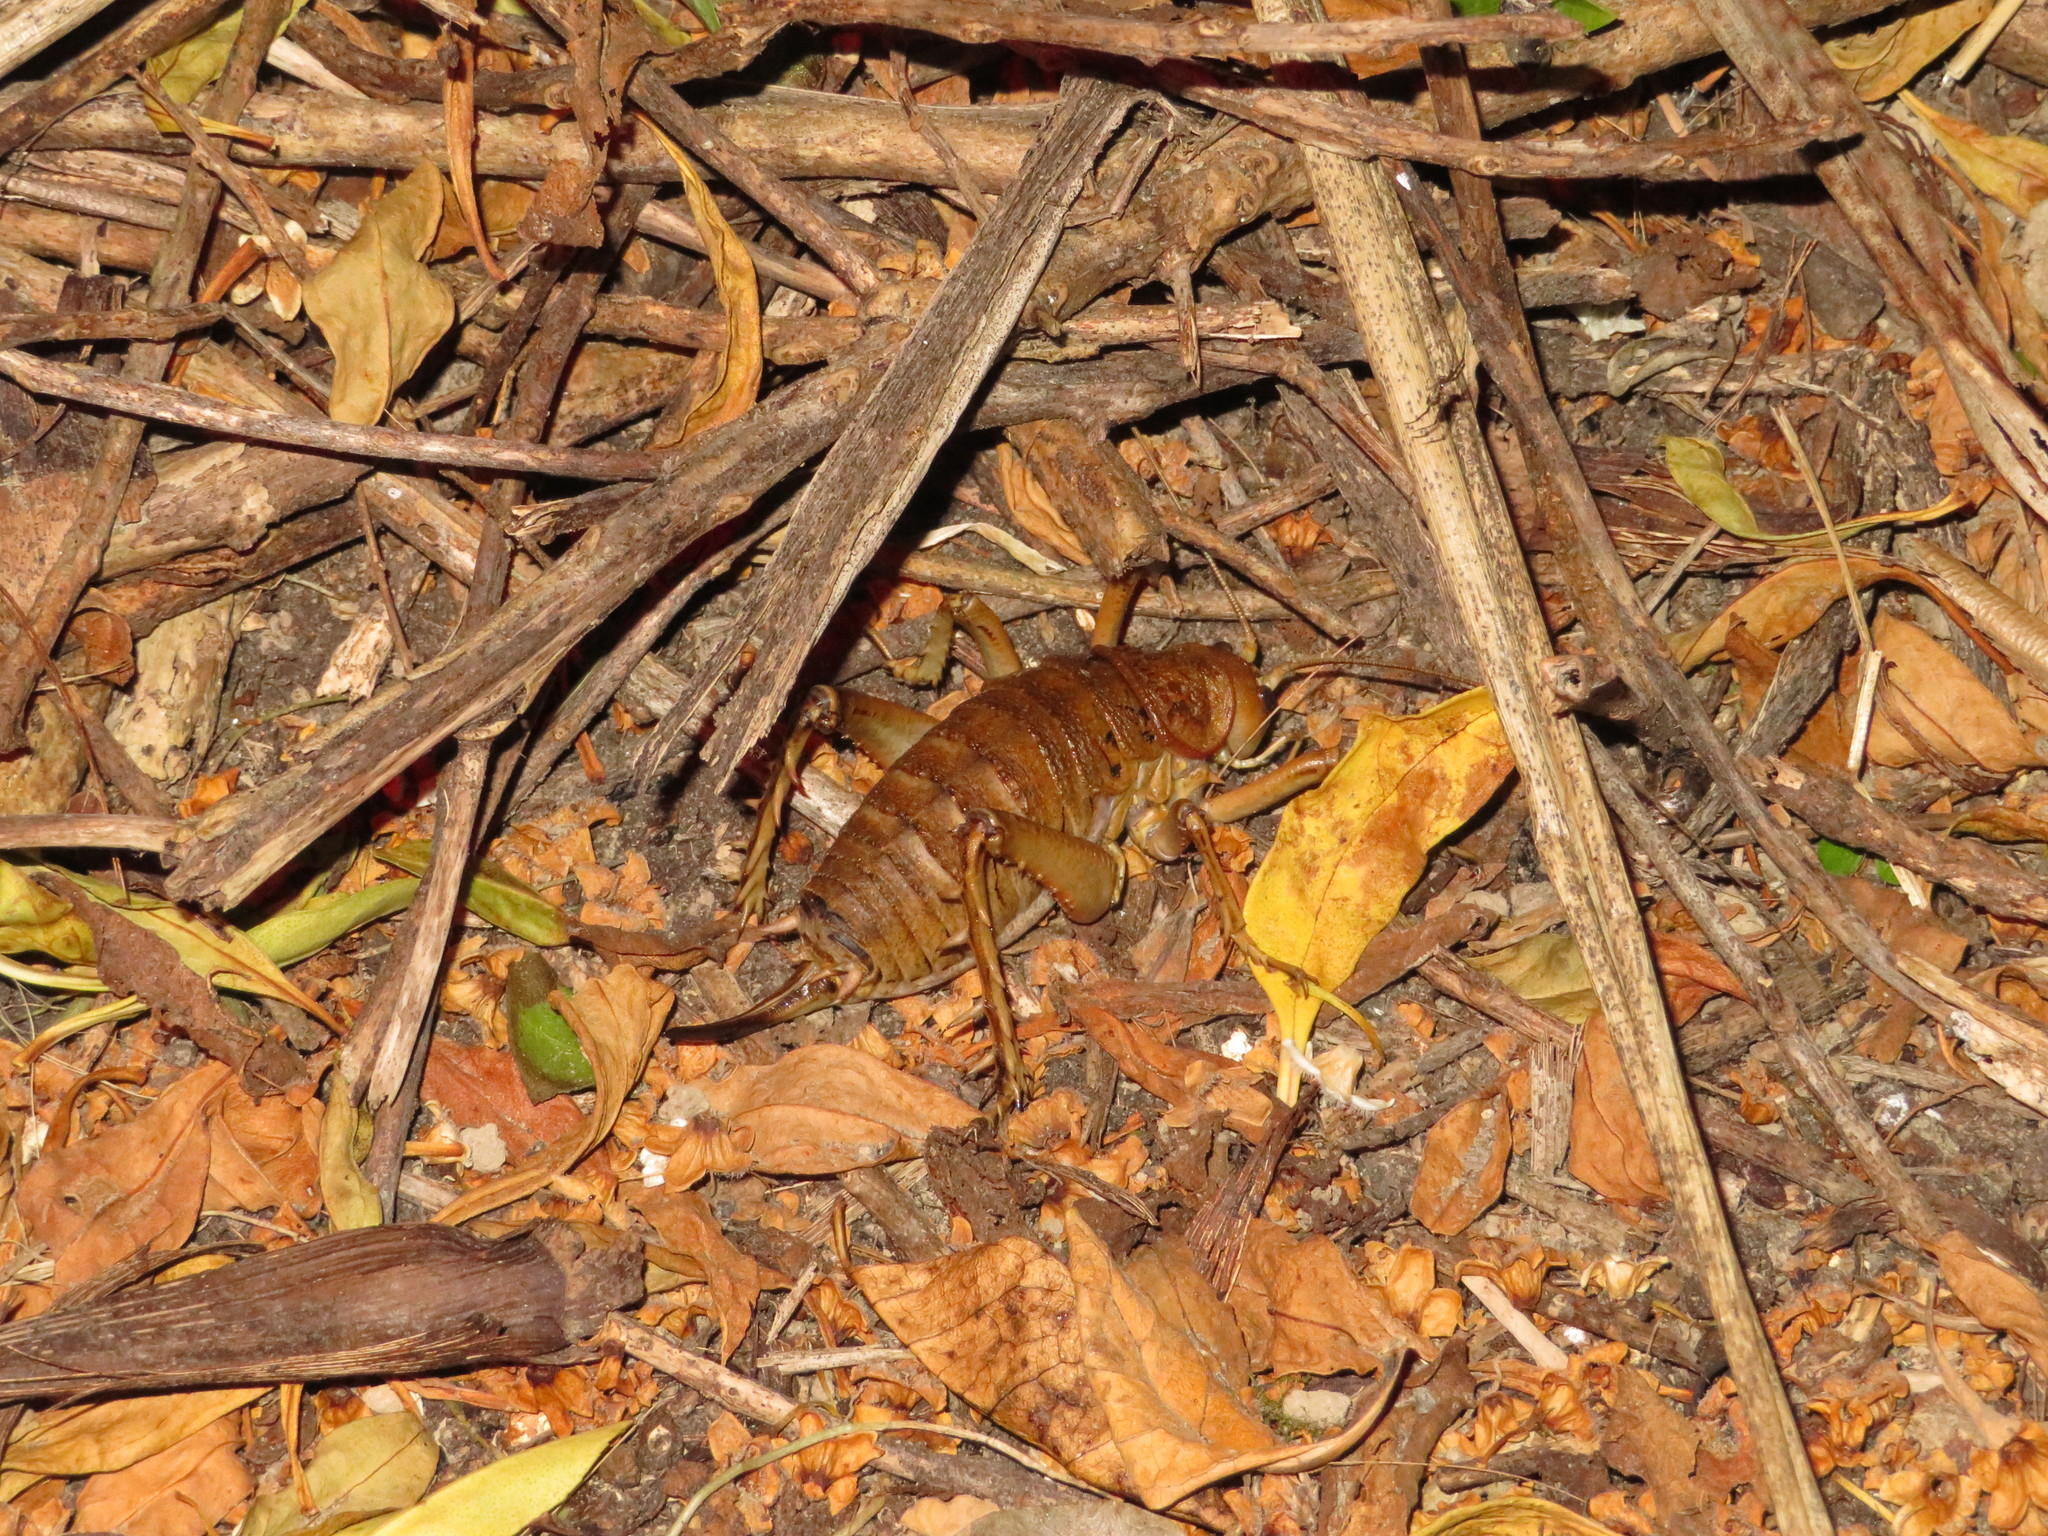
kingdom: Animalia
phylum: Arthropoda
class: Insecta
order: Orthoptera
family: Anostostomatidae
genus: Deinacrida
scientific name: Deinacrida rugosa
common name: Stephens island weta
